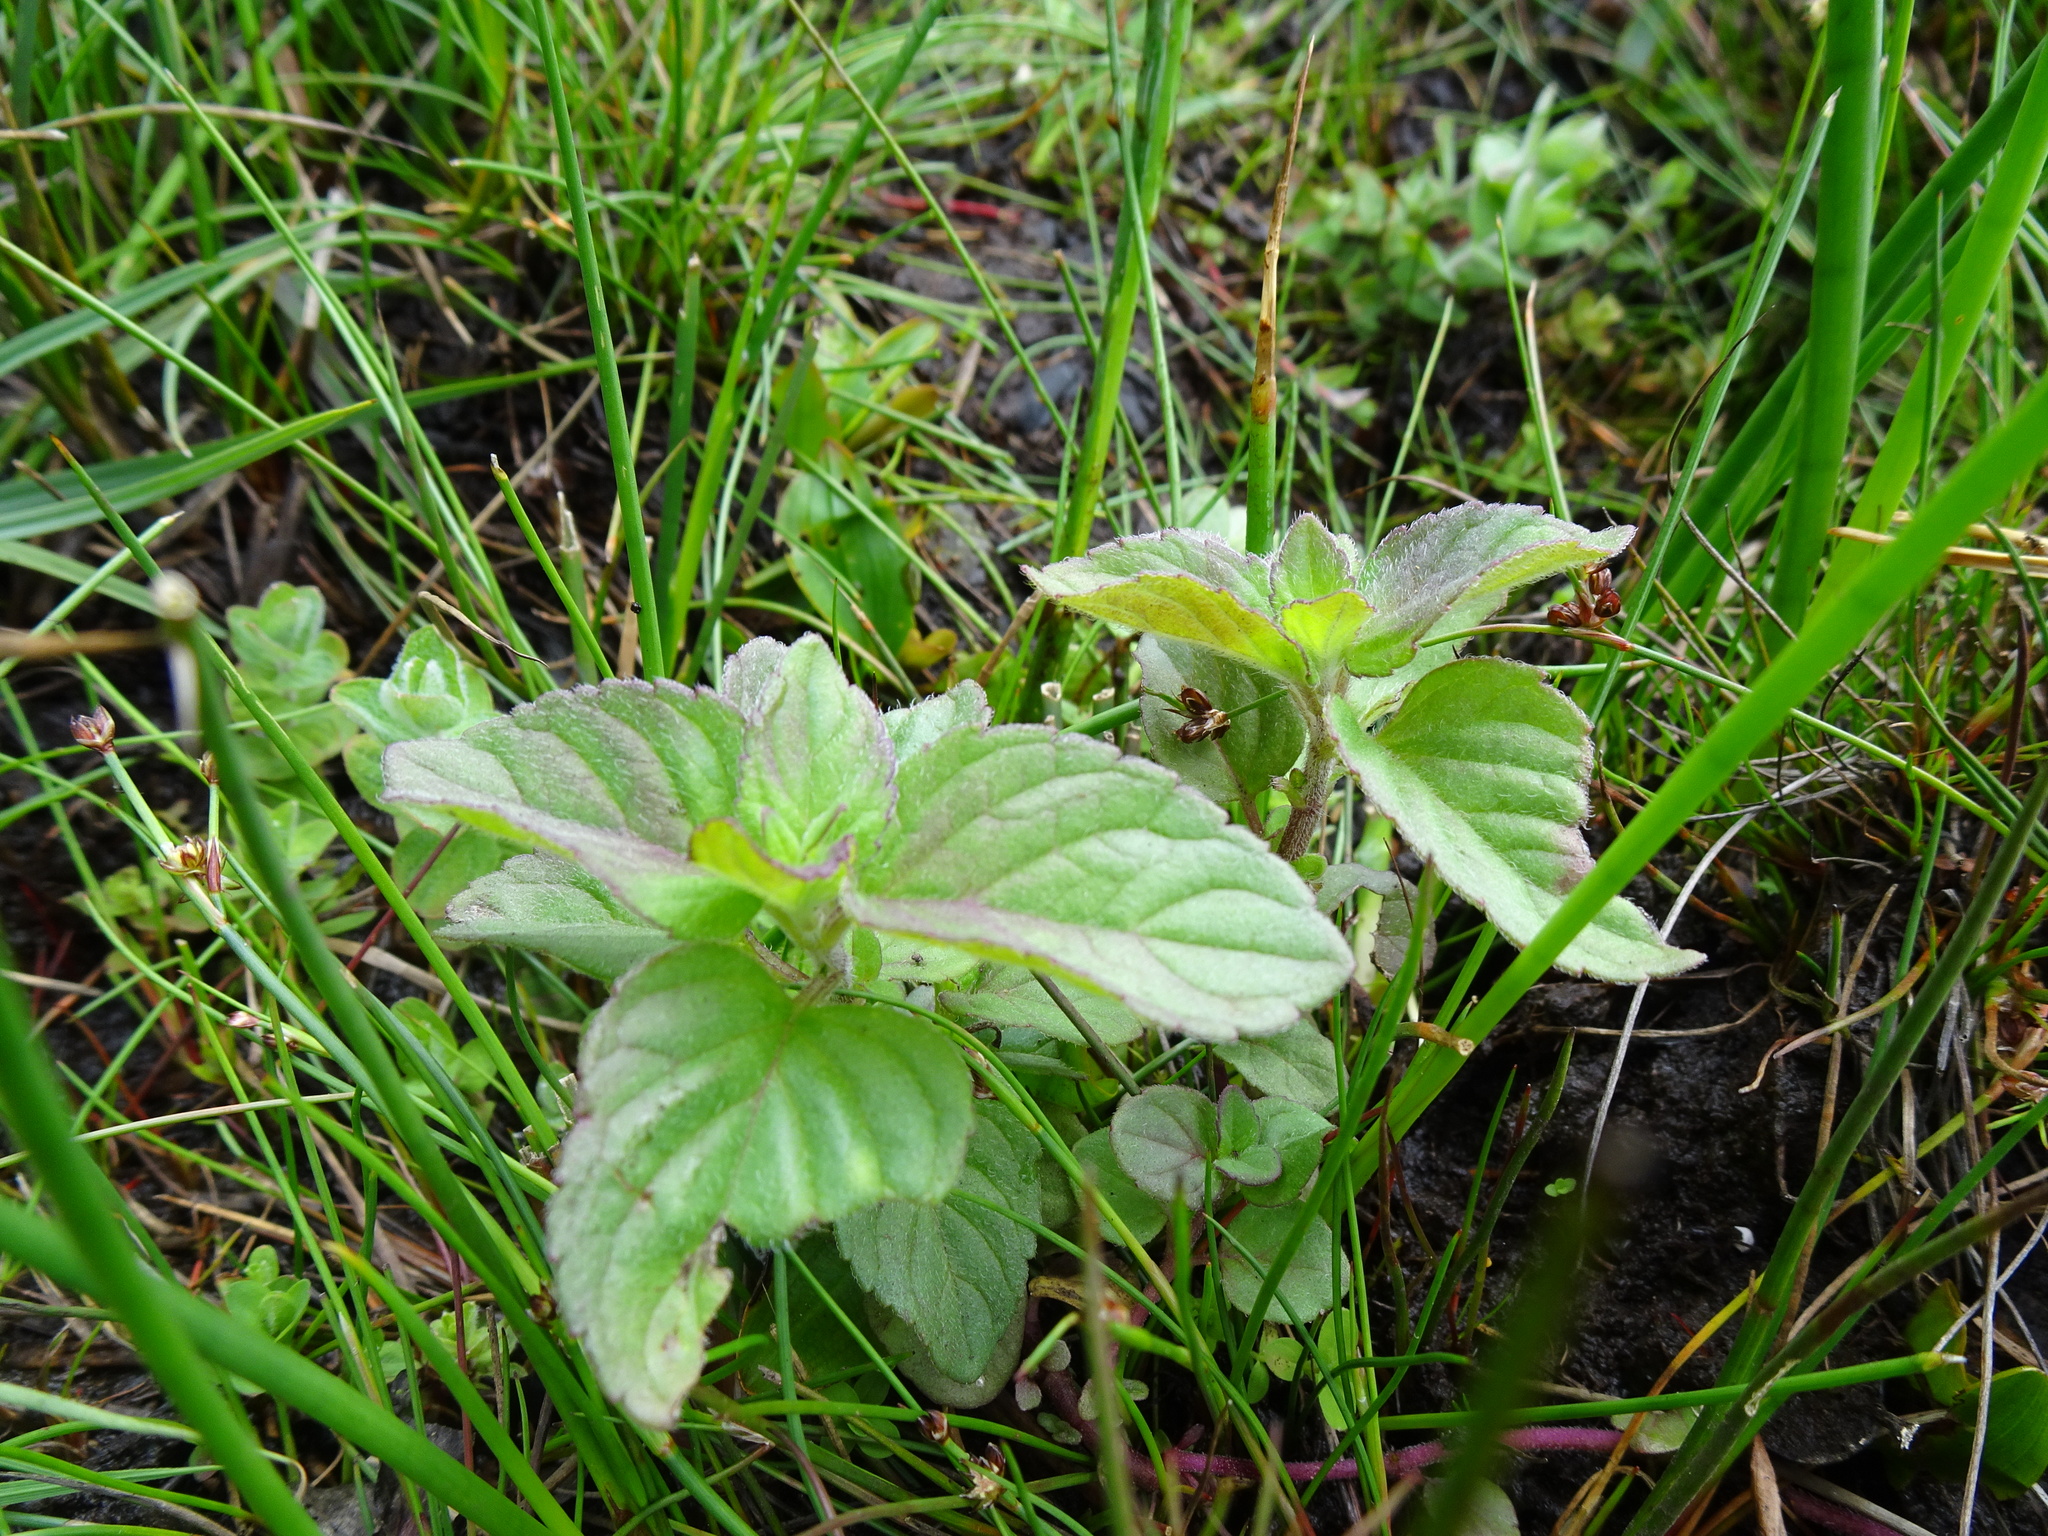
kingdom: Plantae
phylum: Tracheophyta
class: Magnoliopsida
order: Lamiales
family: Lamiaceae
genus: Mentha
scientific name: Mentha aquatica
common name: Water mint
